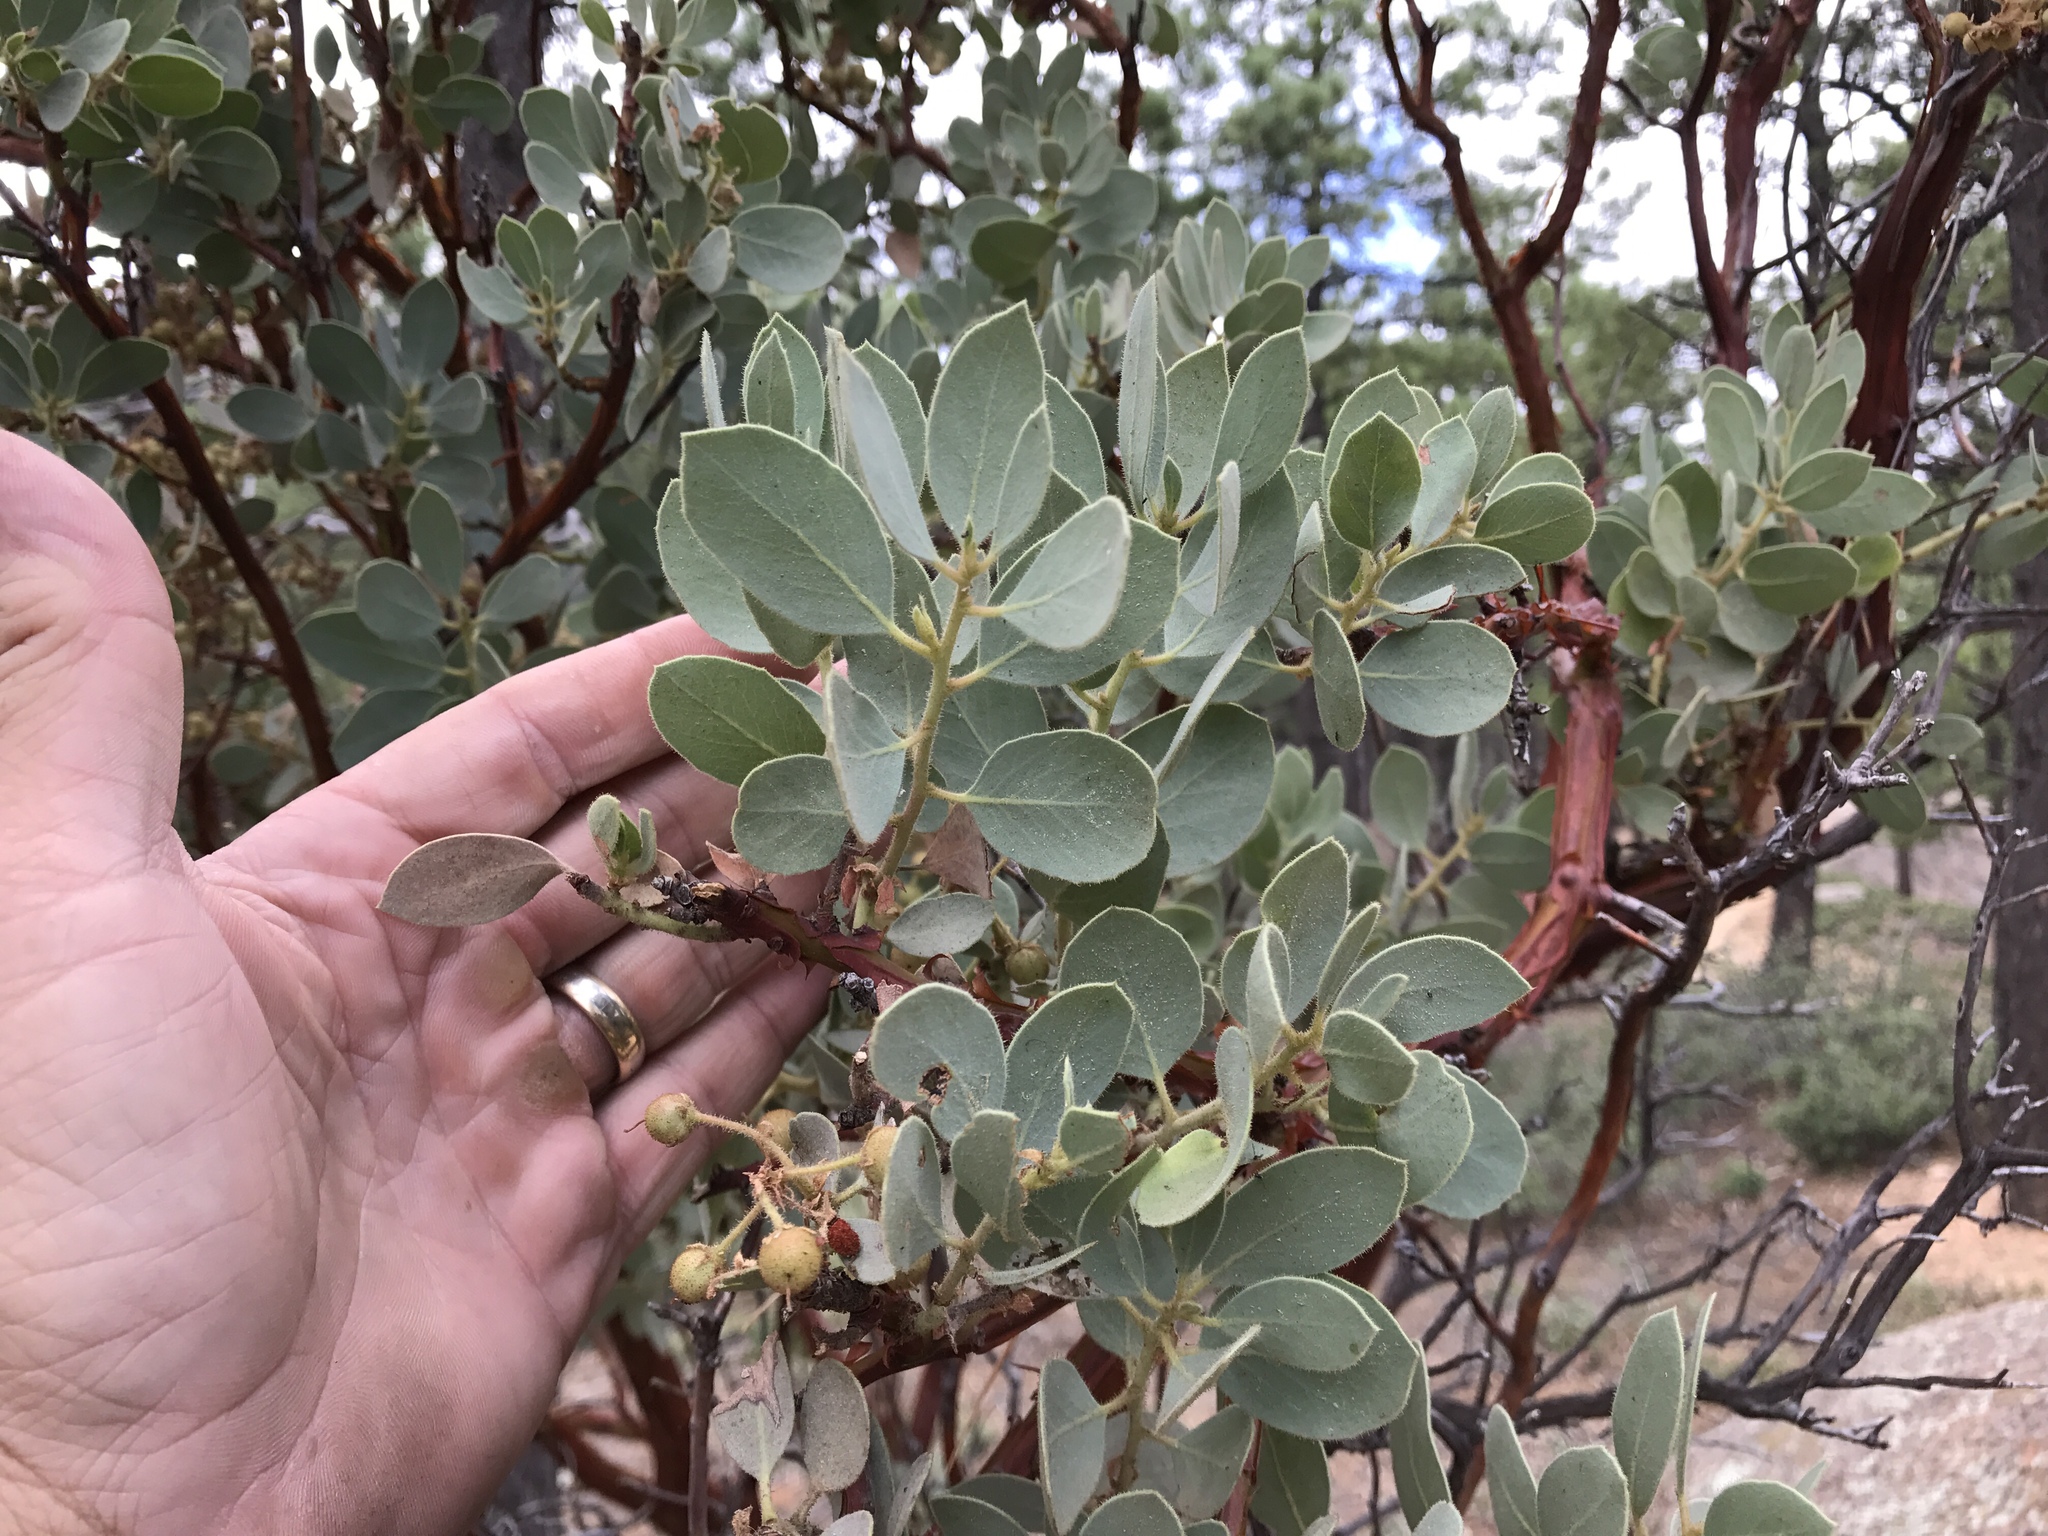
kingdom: Plantae
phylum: Tracheophyta
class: Magnoliopsida
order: Ericales
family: Ericaceae
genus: Arctostaphylos
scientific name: Arctostaphylos pringlei
